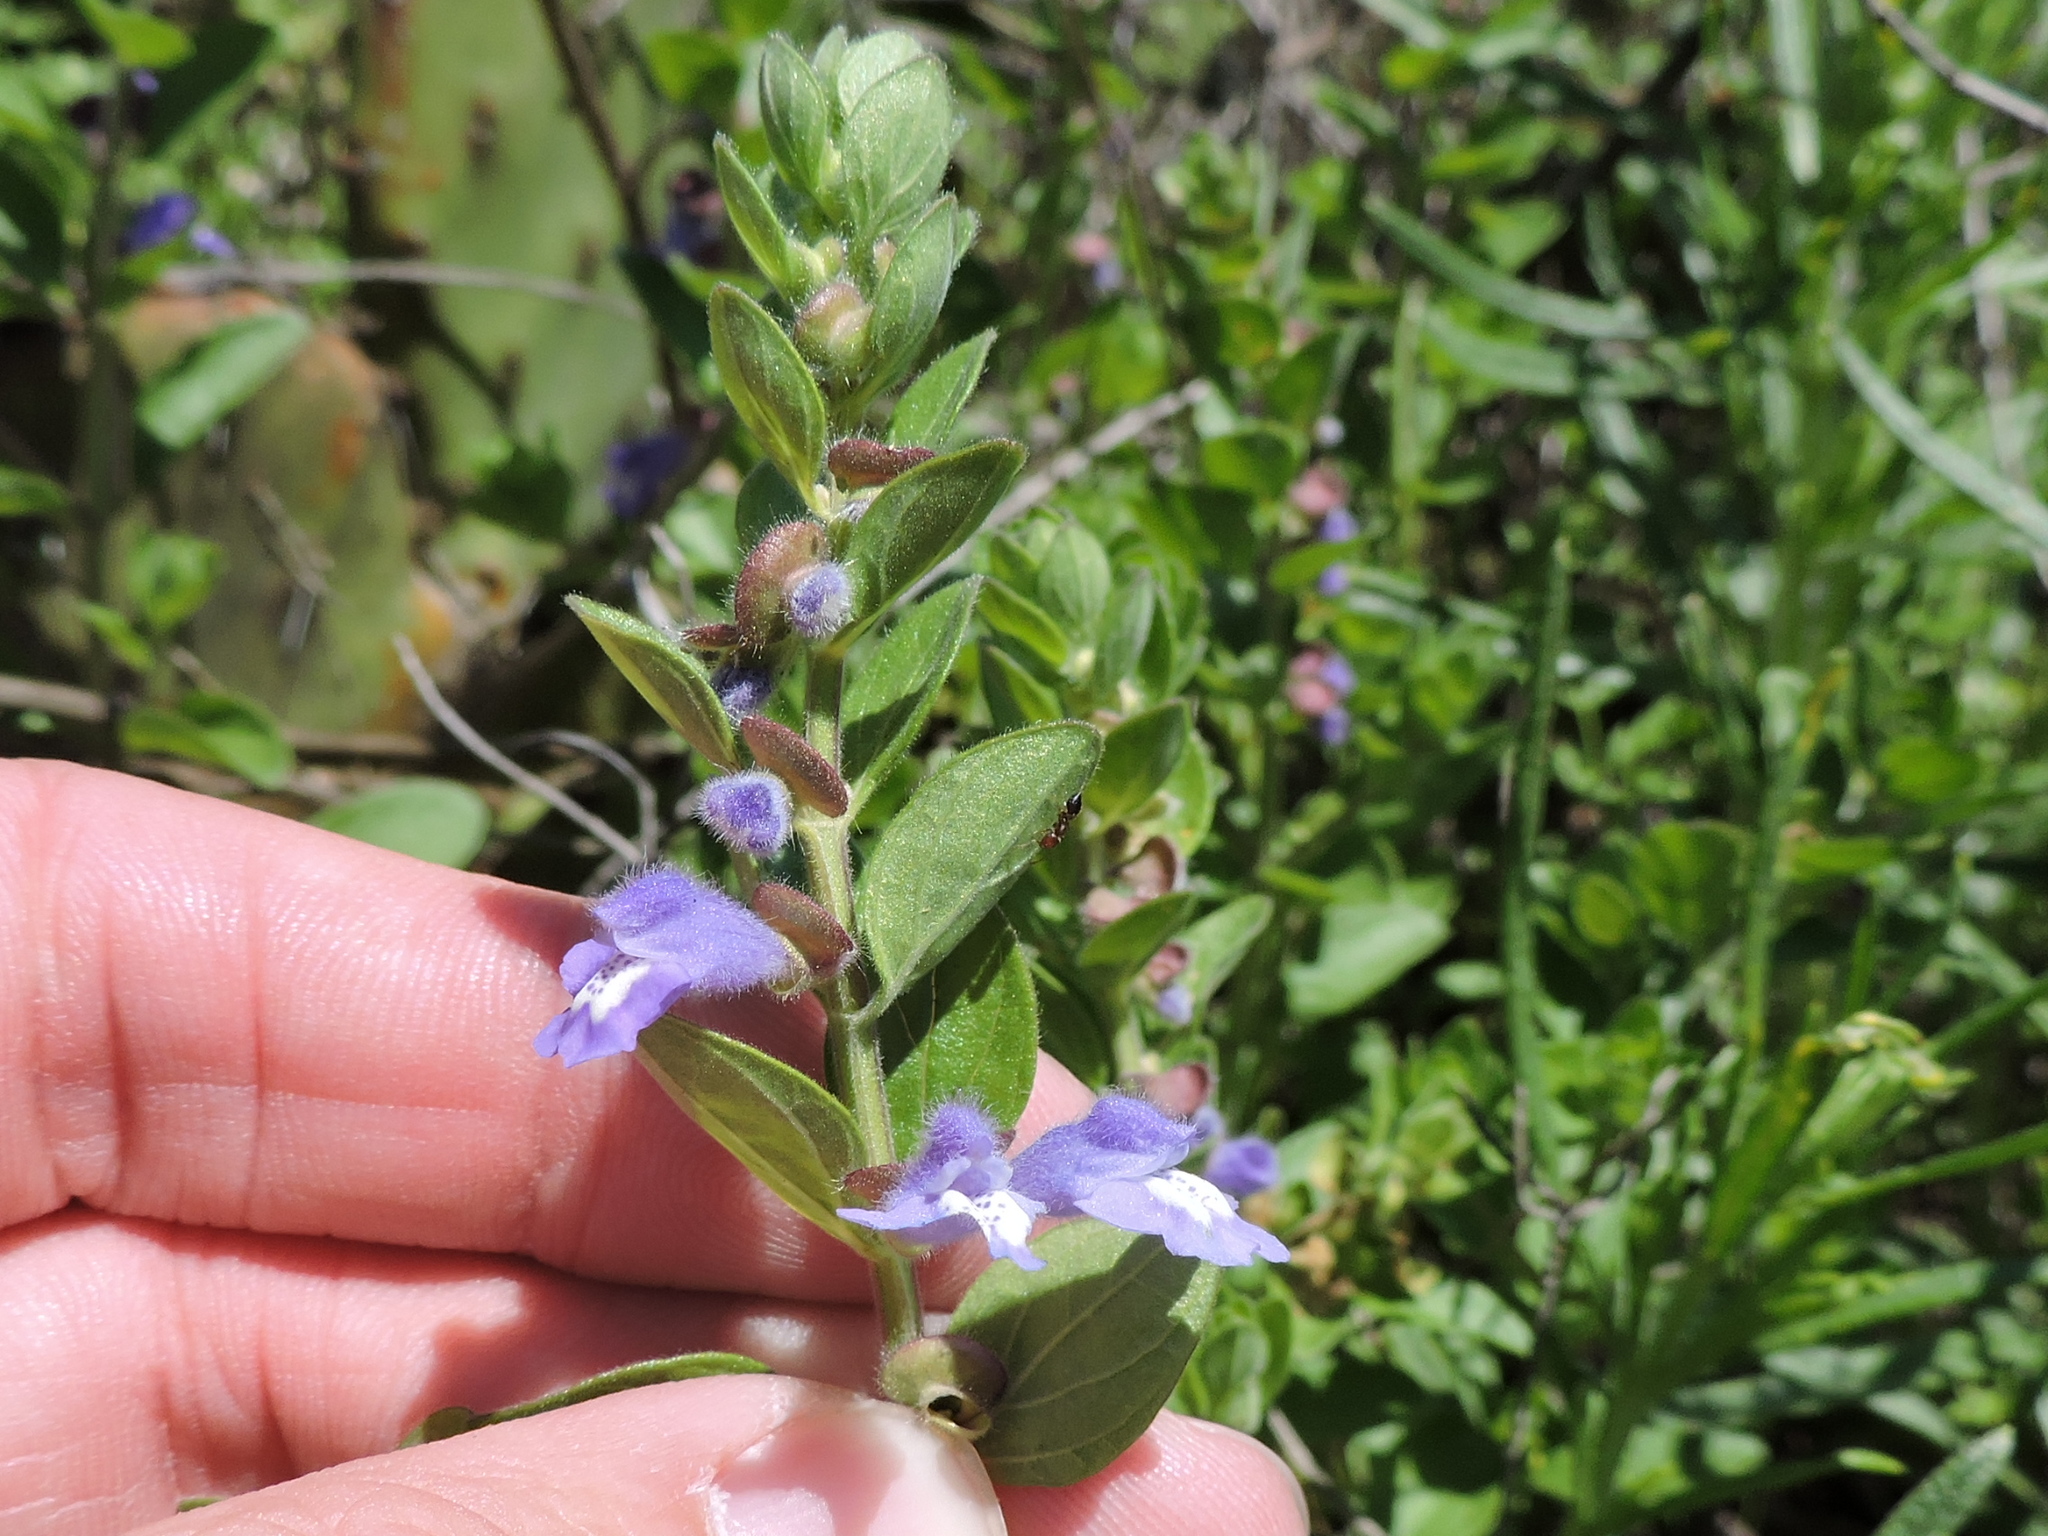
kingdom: Plantae
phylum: Tracheophyta
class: Magnoliopsida
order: Lamiales
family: Lamiaceae
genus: Scutellaria
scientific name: Scutellaria drummondii
